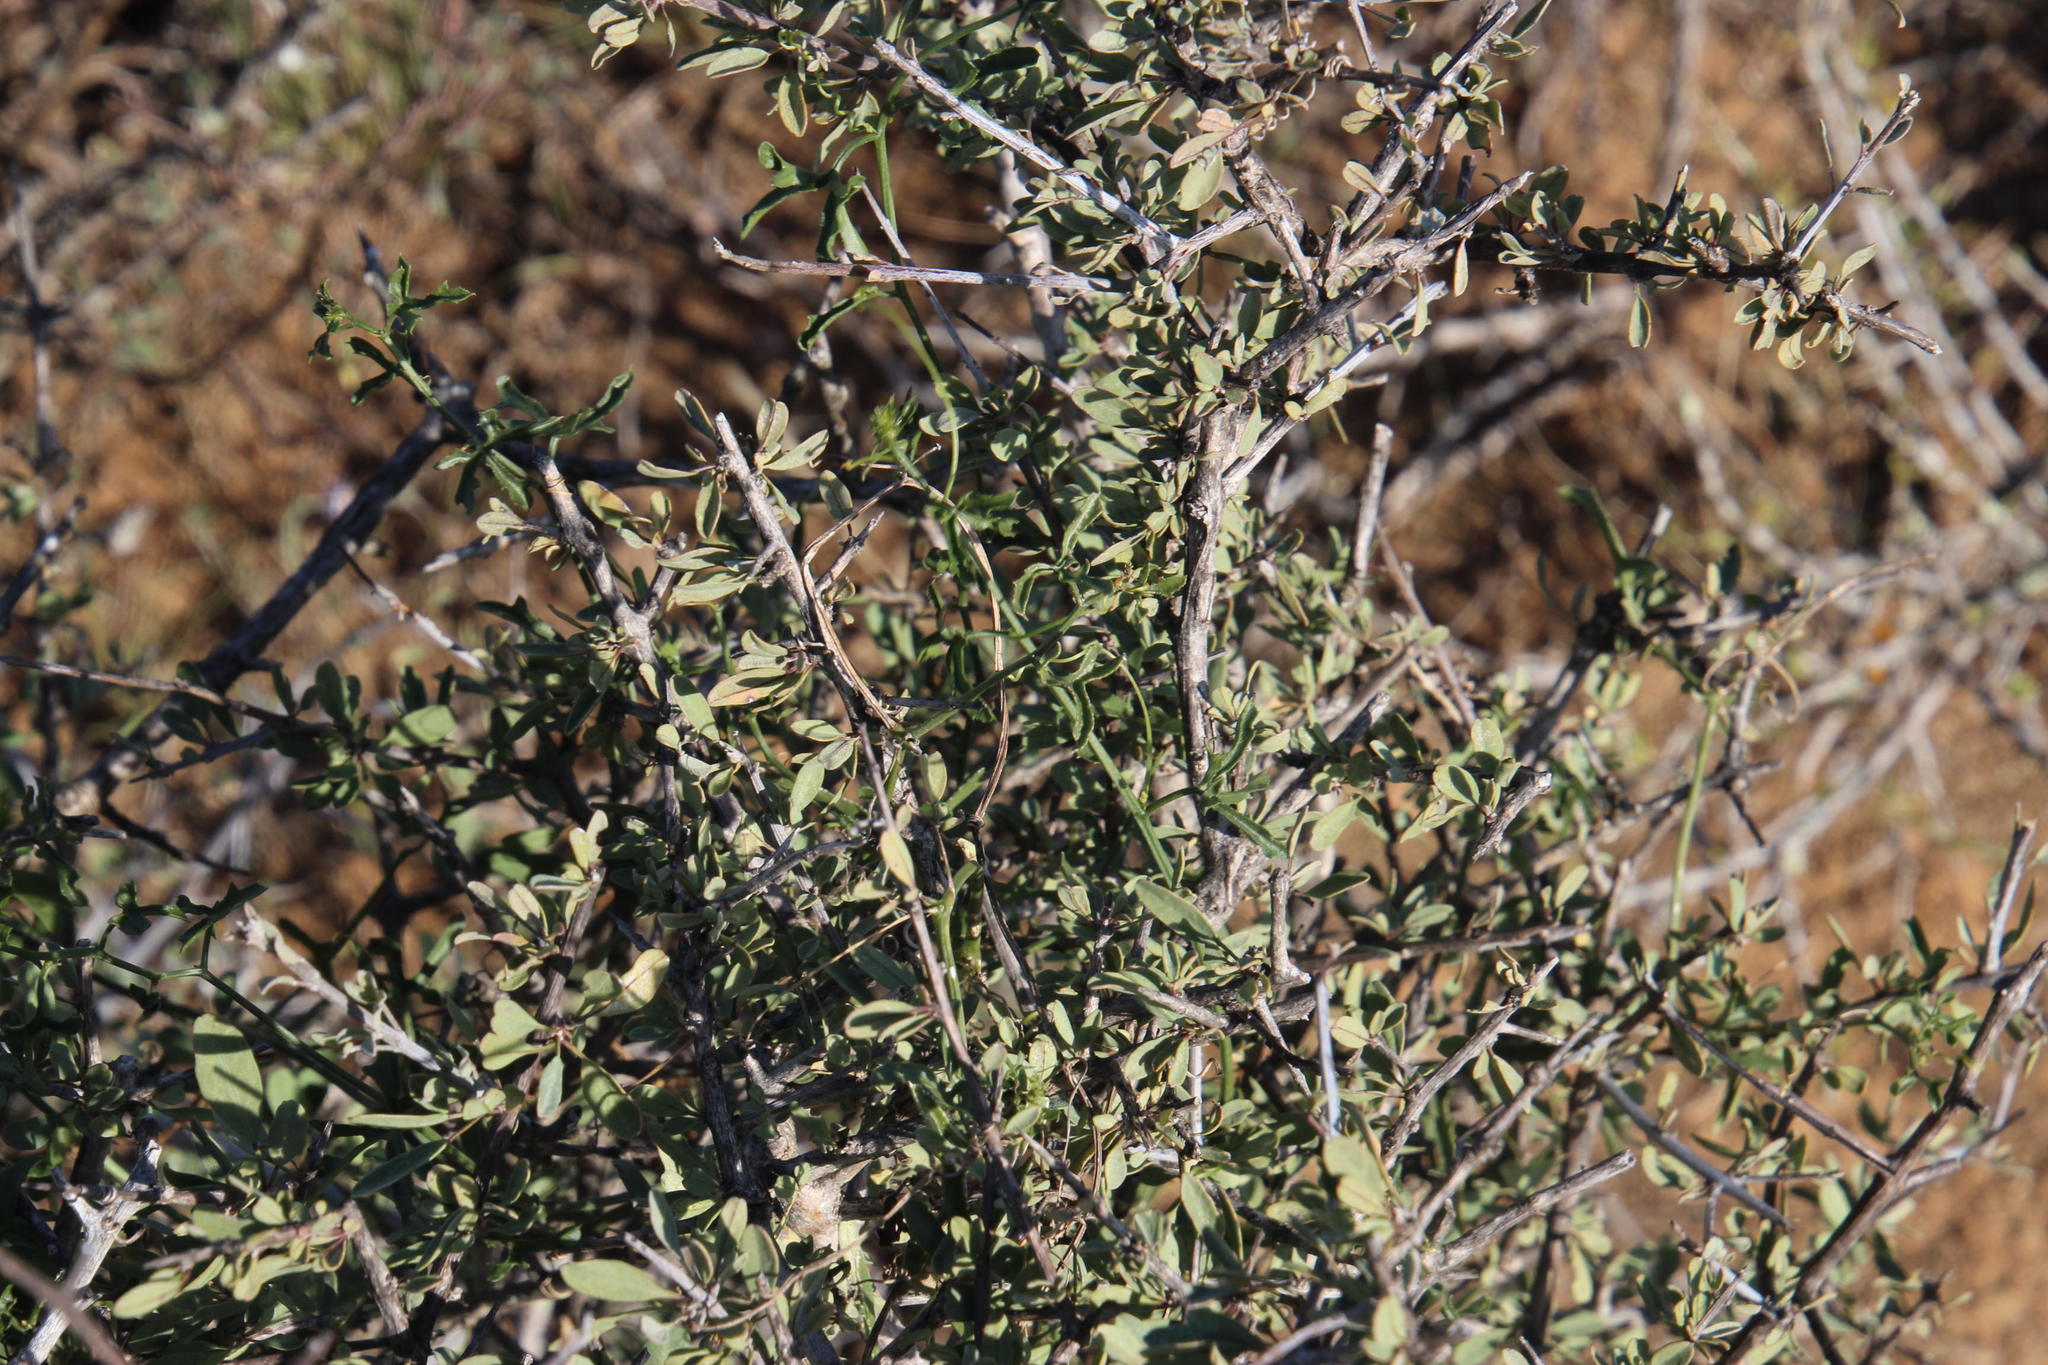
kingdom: Plantae
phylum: Tracheophyta
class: Magnoliopsida
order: Cucurbitales
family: Cucurbitaceae
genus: Kedrostis
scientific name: Kedrostis capensis
